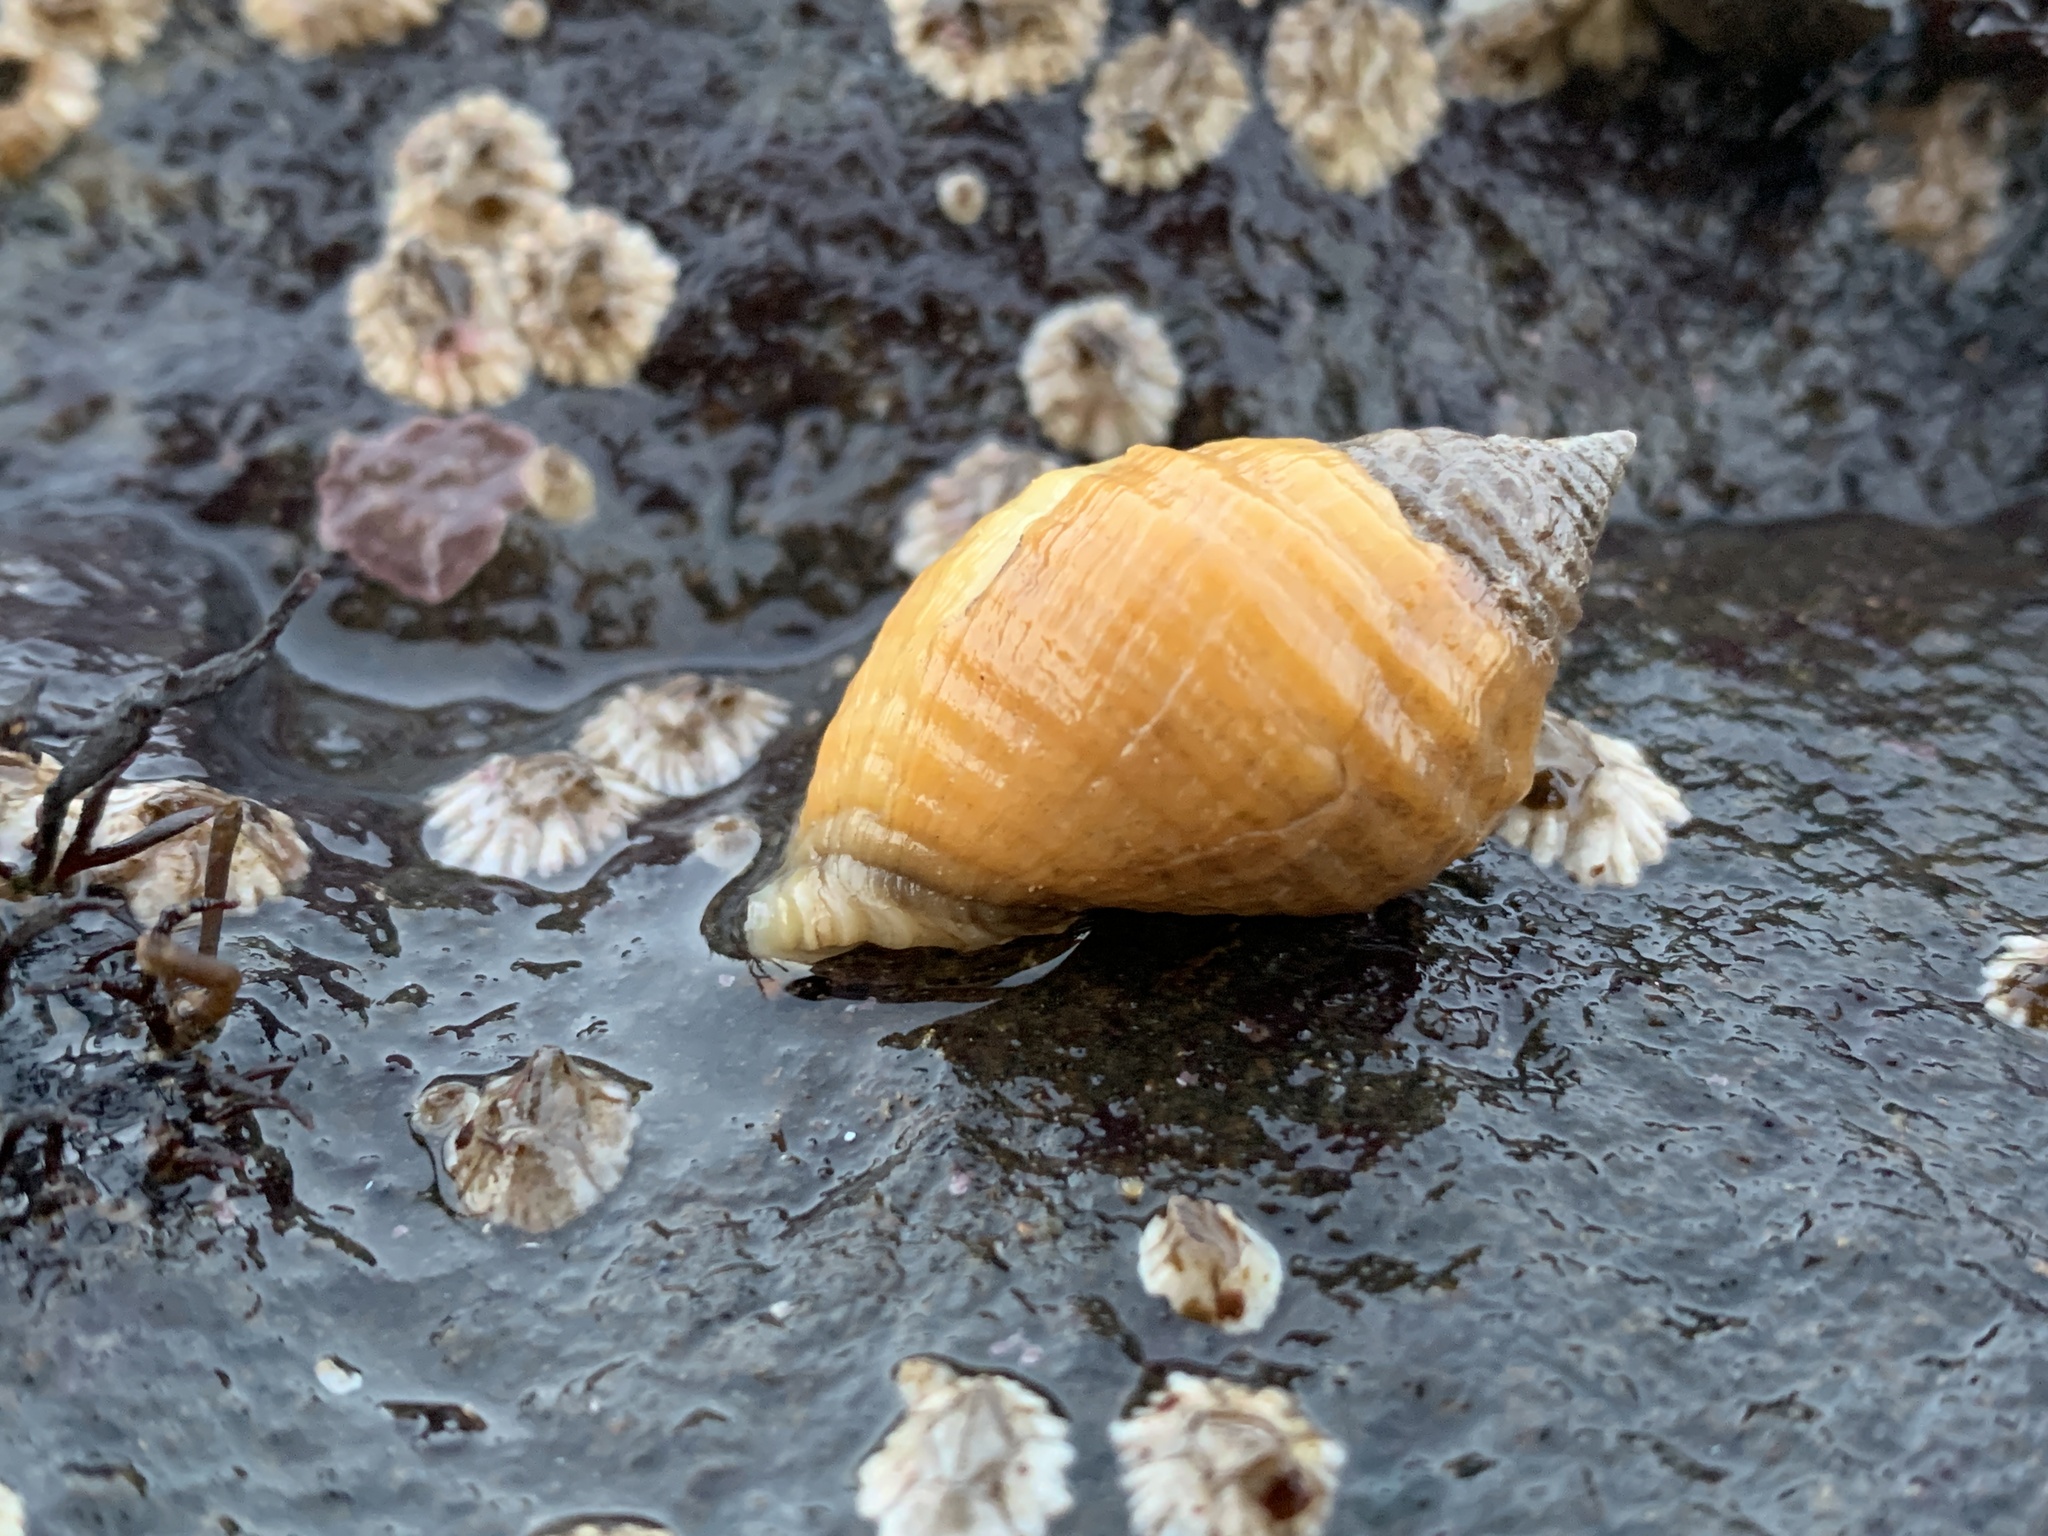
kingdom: Animalia
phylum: Mollusca
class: Gastropoda
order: Neogastropoda
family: Muricidae
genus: Nucella
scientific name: Nucella lapillus
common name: Dog whelk
